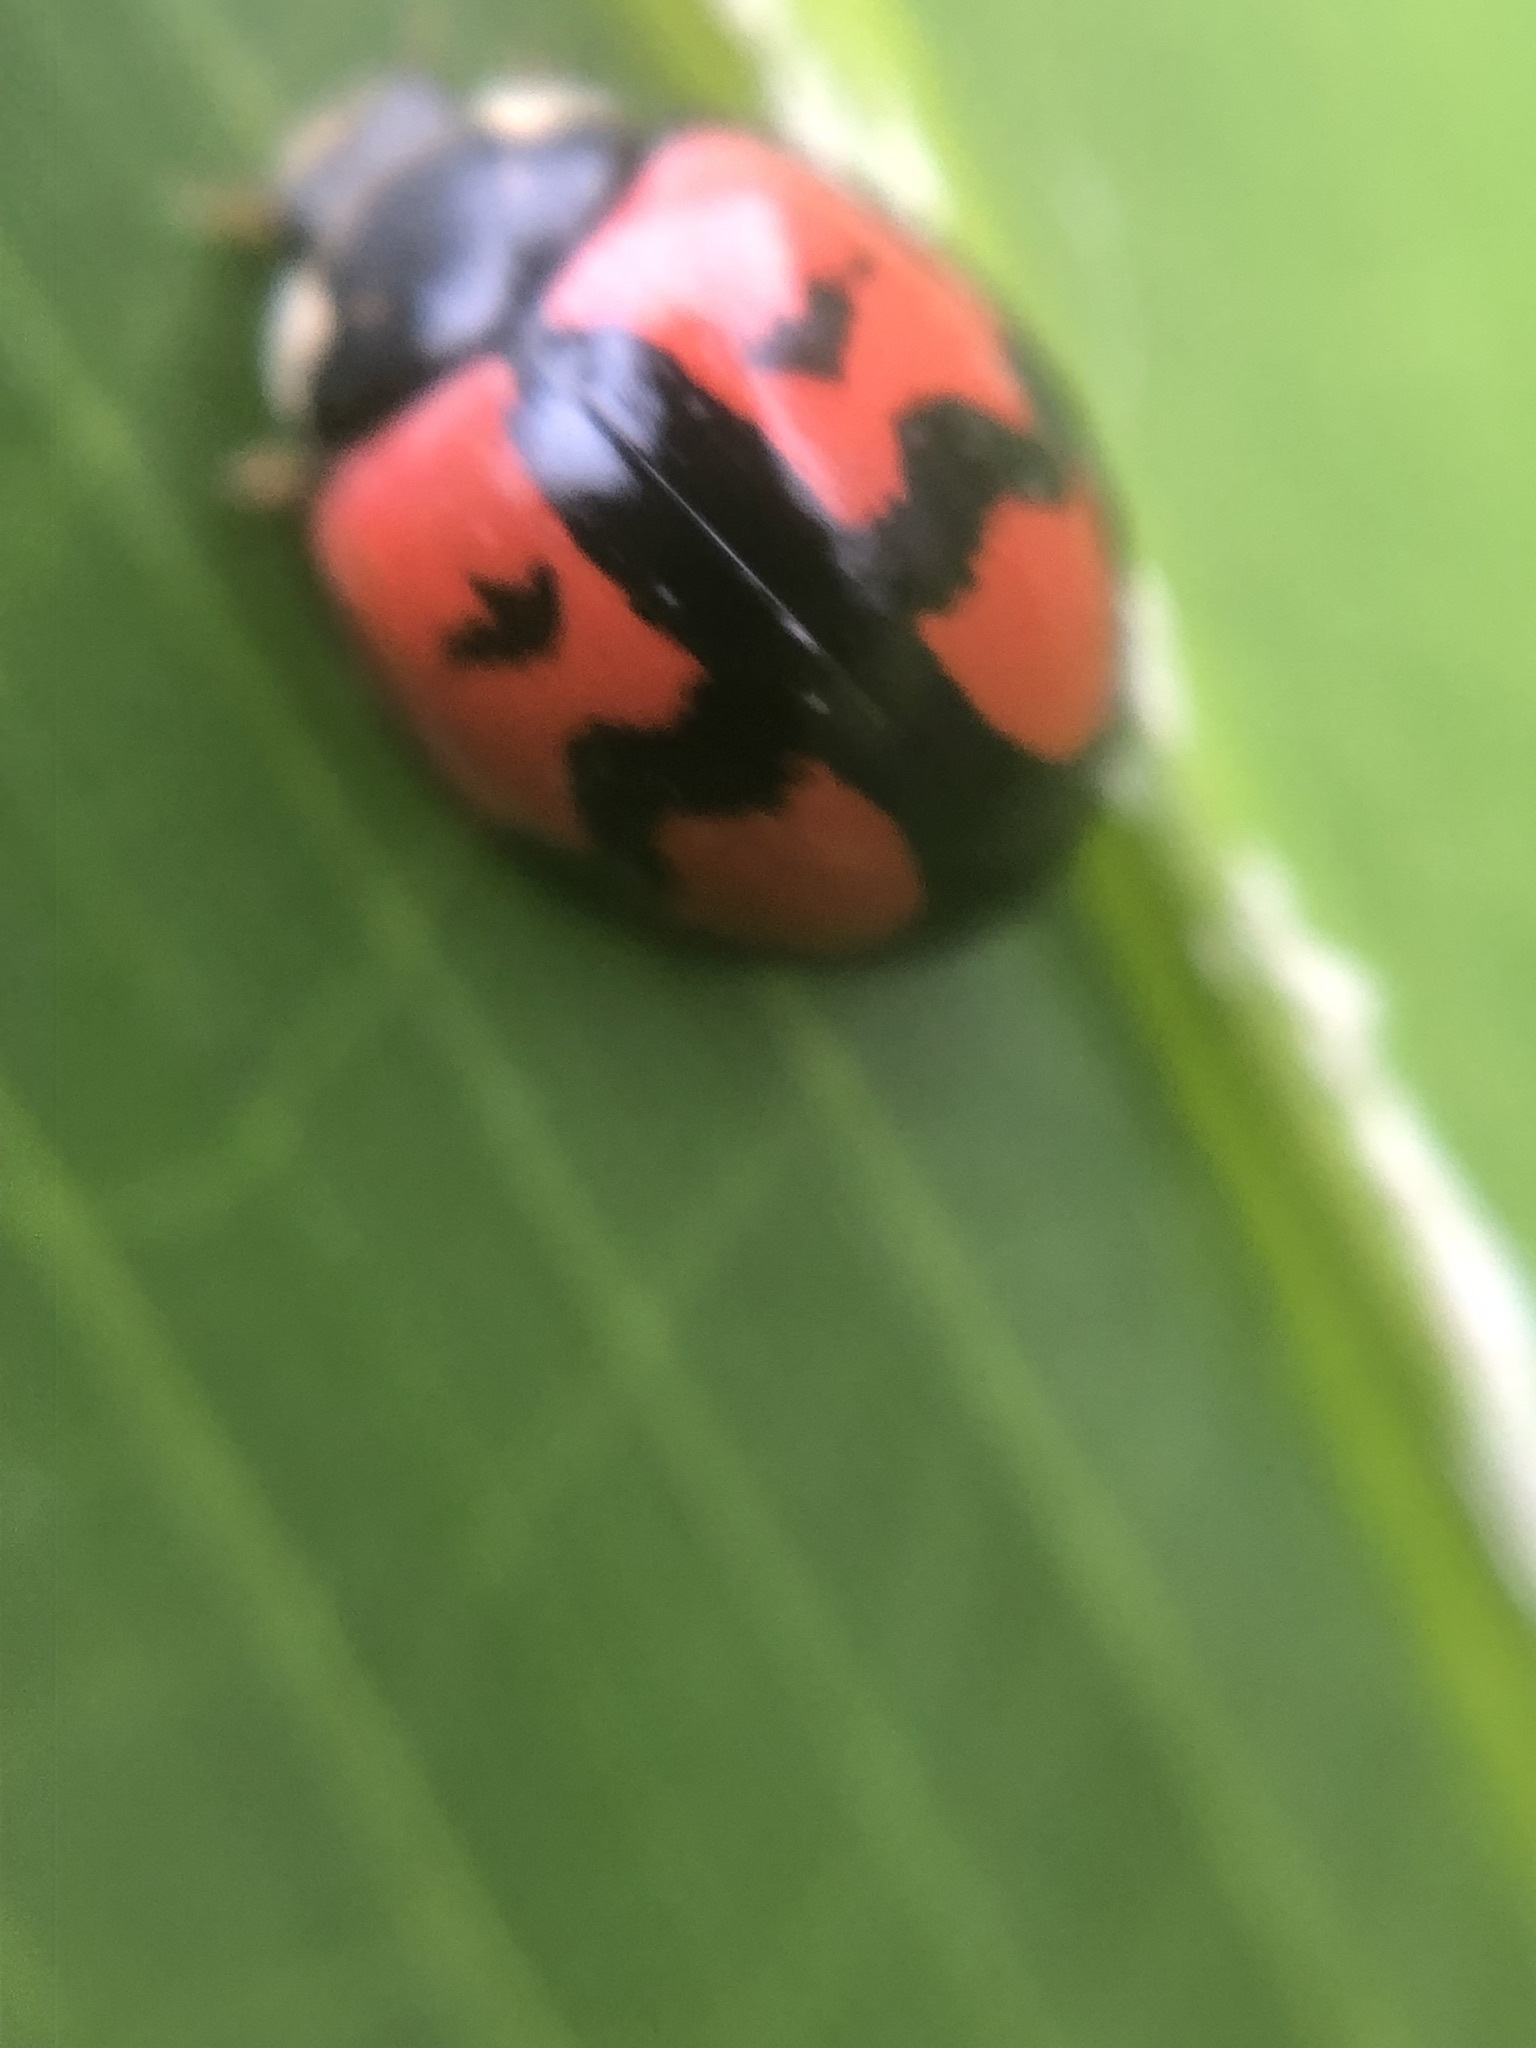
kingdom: Animalia
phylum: Arthropoda
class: Insecta
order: Coleoptera
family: Coccinellidae
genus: Cheilomenes
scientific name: Cheilomenes sexmaculata
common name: Ladybird beetle
